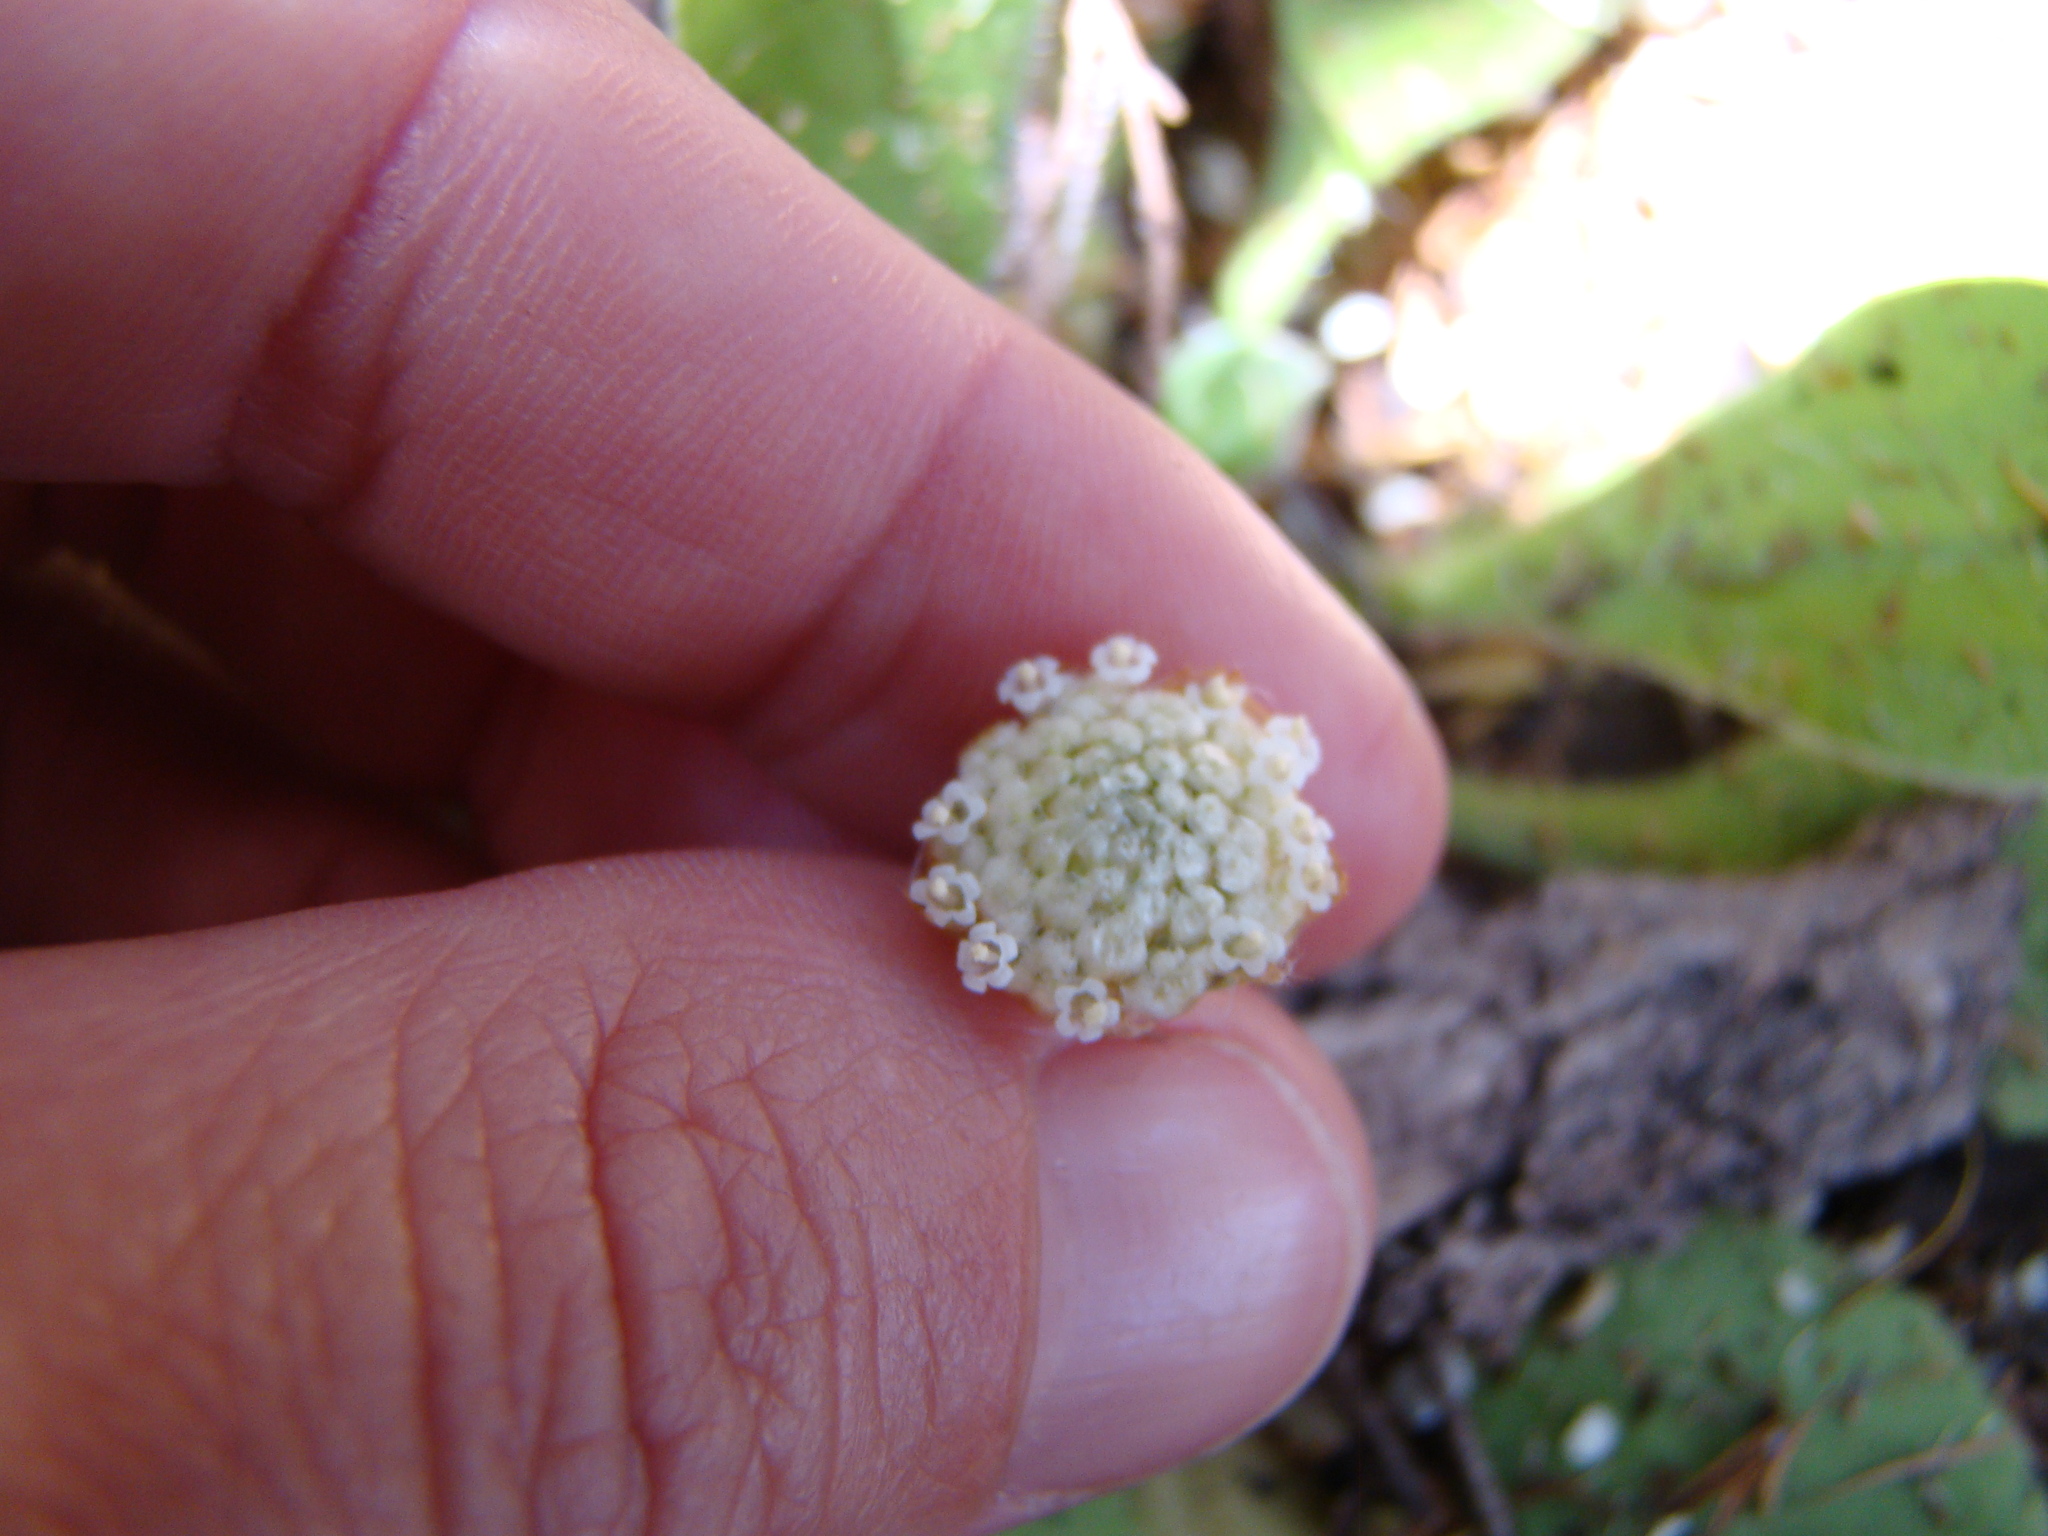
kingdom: Plantae
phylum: Tracheophyta
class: Magnoliopsida
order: Asterales
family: Asteraceae
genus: Craspedia
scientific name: Craspedia minor
